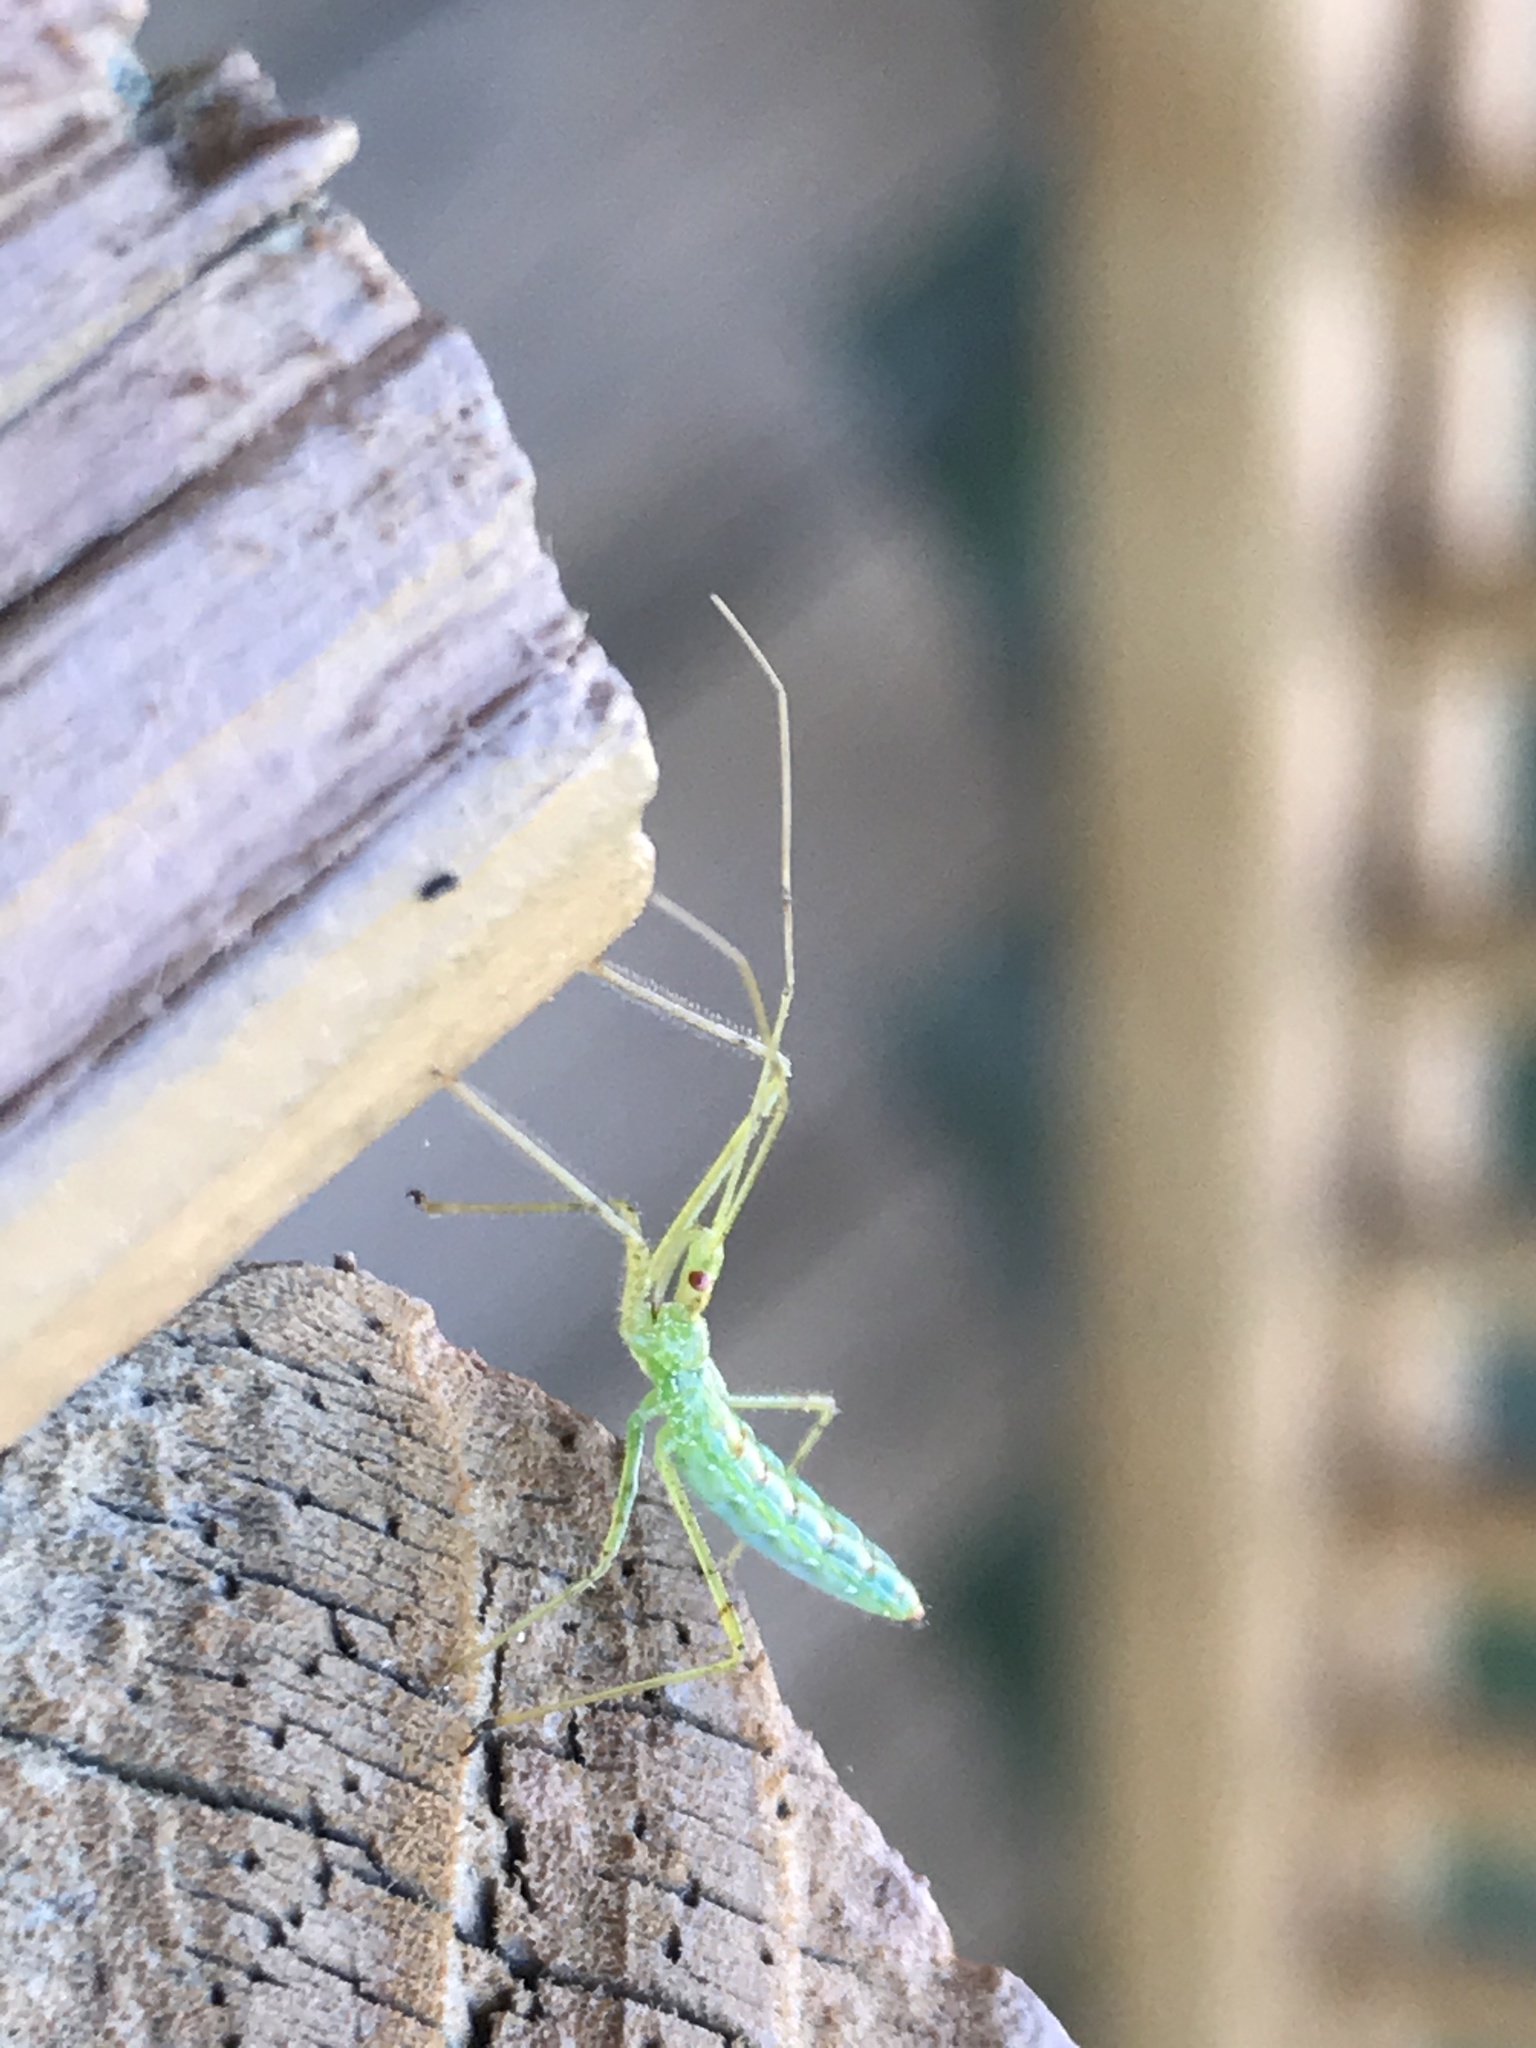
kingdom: Animalia
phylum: Arthropoda
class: Insecta
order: Hemiptera
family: Reduviidae
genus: Zelus
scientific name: Zelus luridus
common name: Pale green assassin bug
